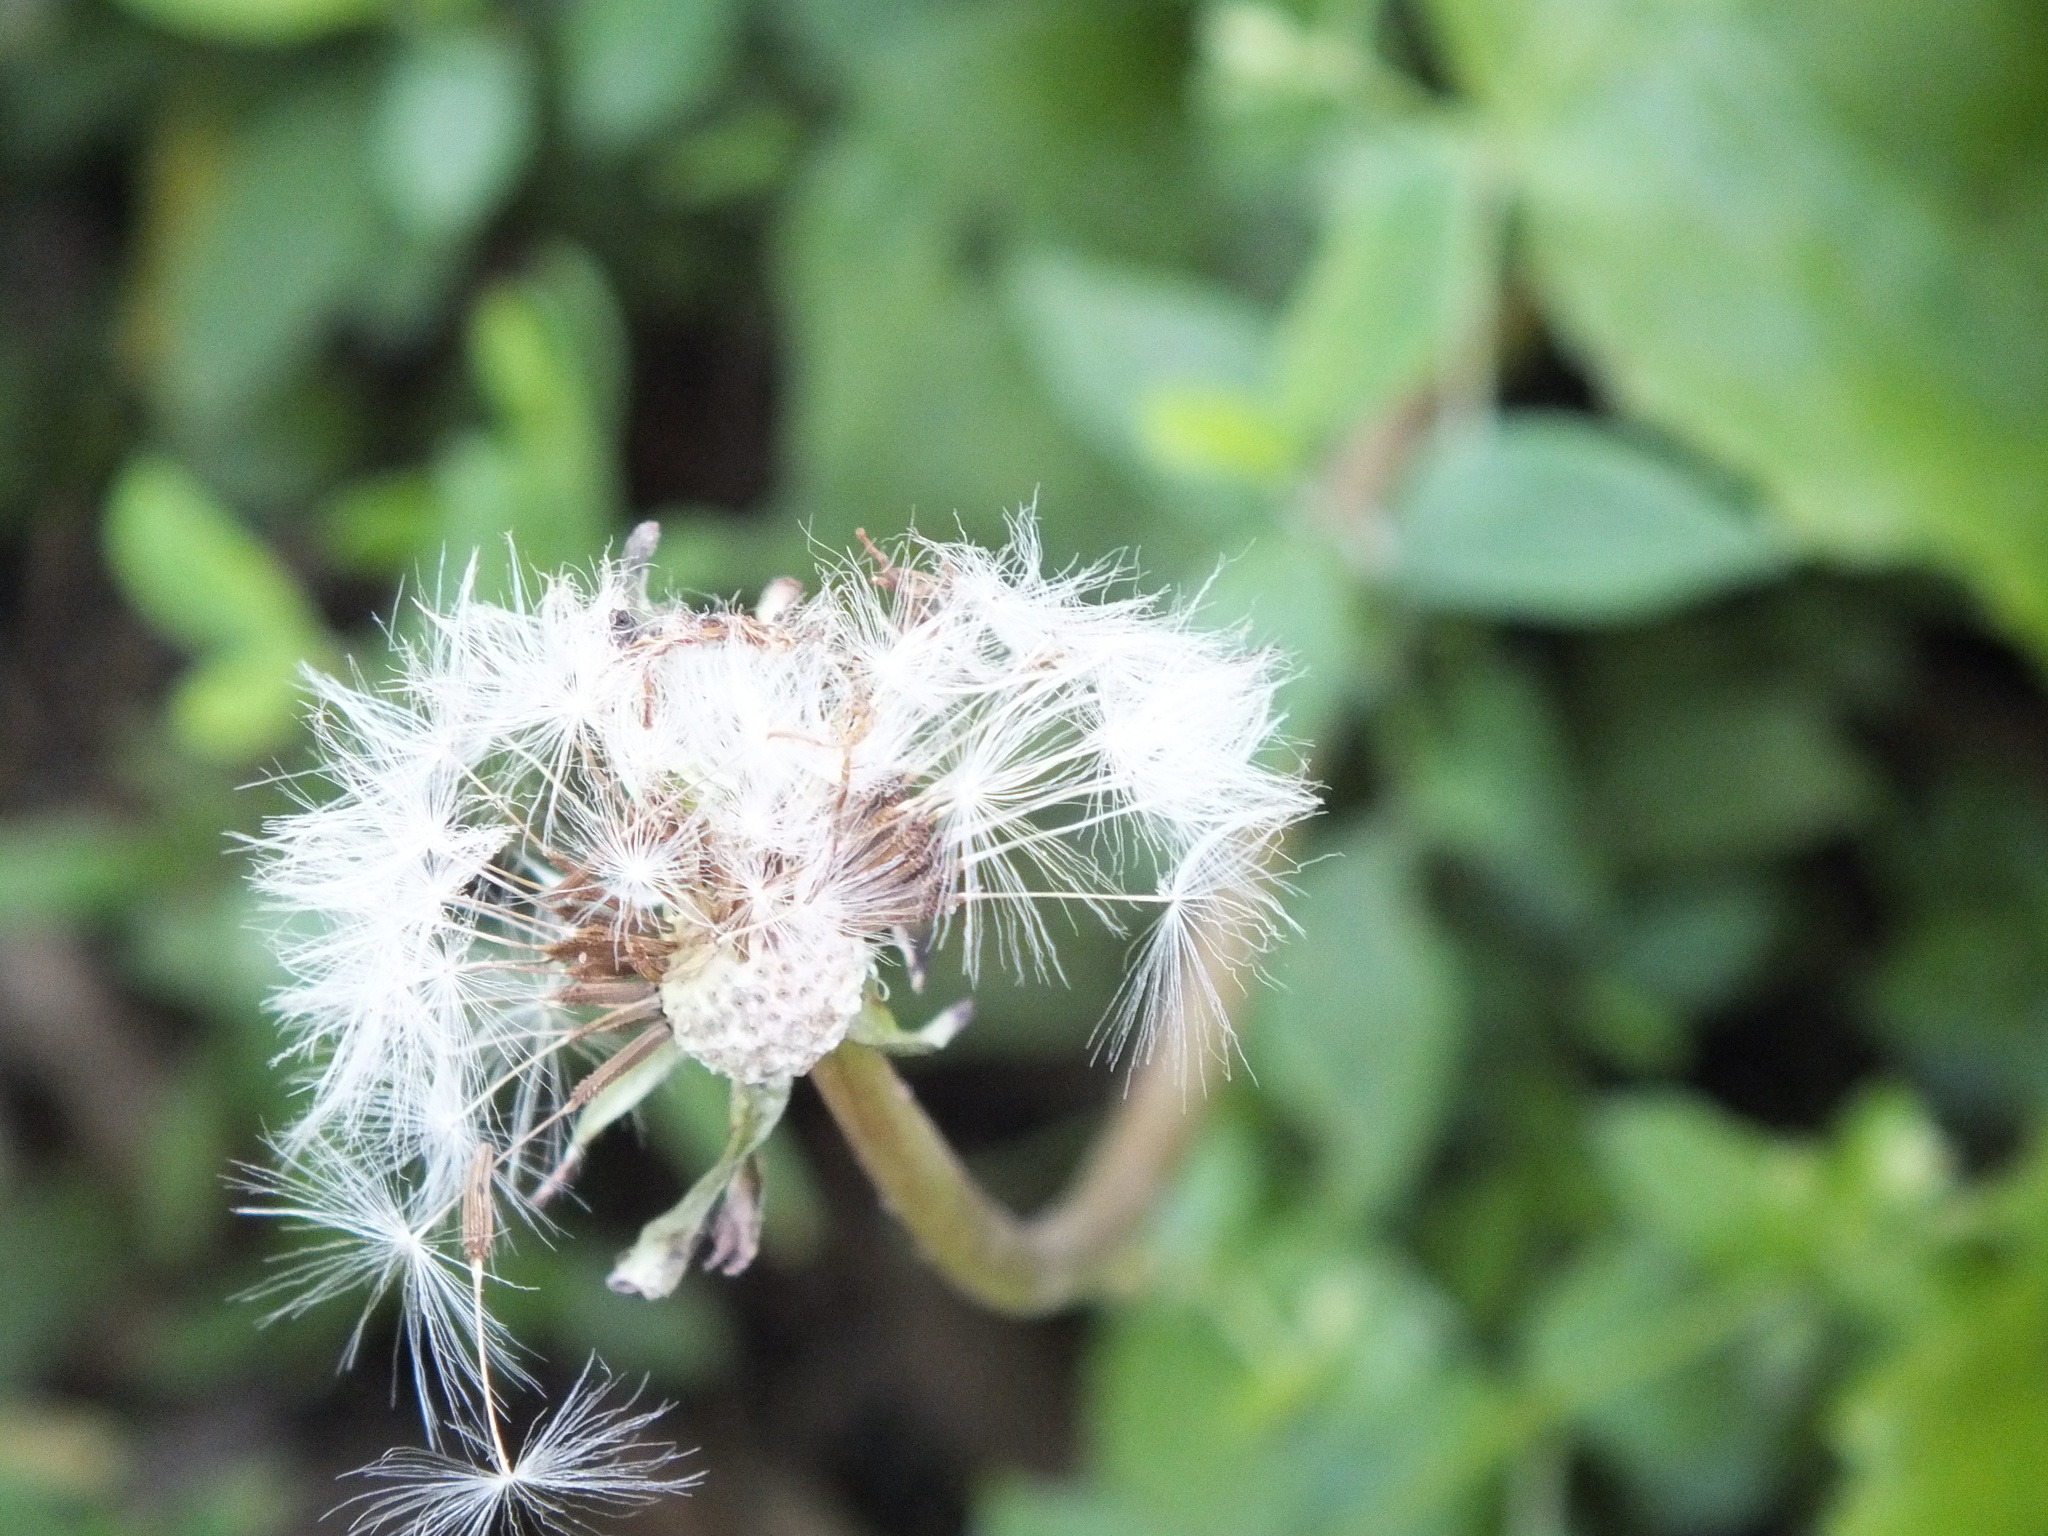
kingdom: Plantae
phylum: Tracheophyta
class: Magnoliopsida
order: Asterales
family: Asteraceae
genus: Taraxacum
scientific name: Taraxacum officinale
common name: Common dandelion
